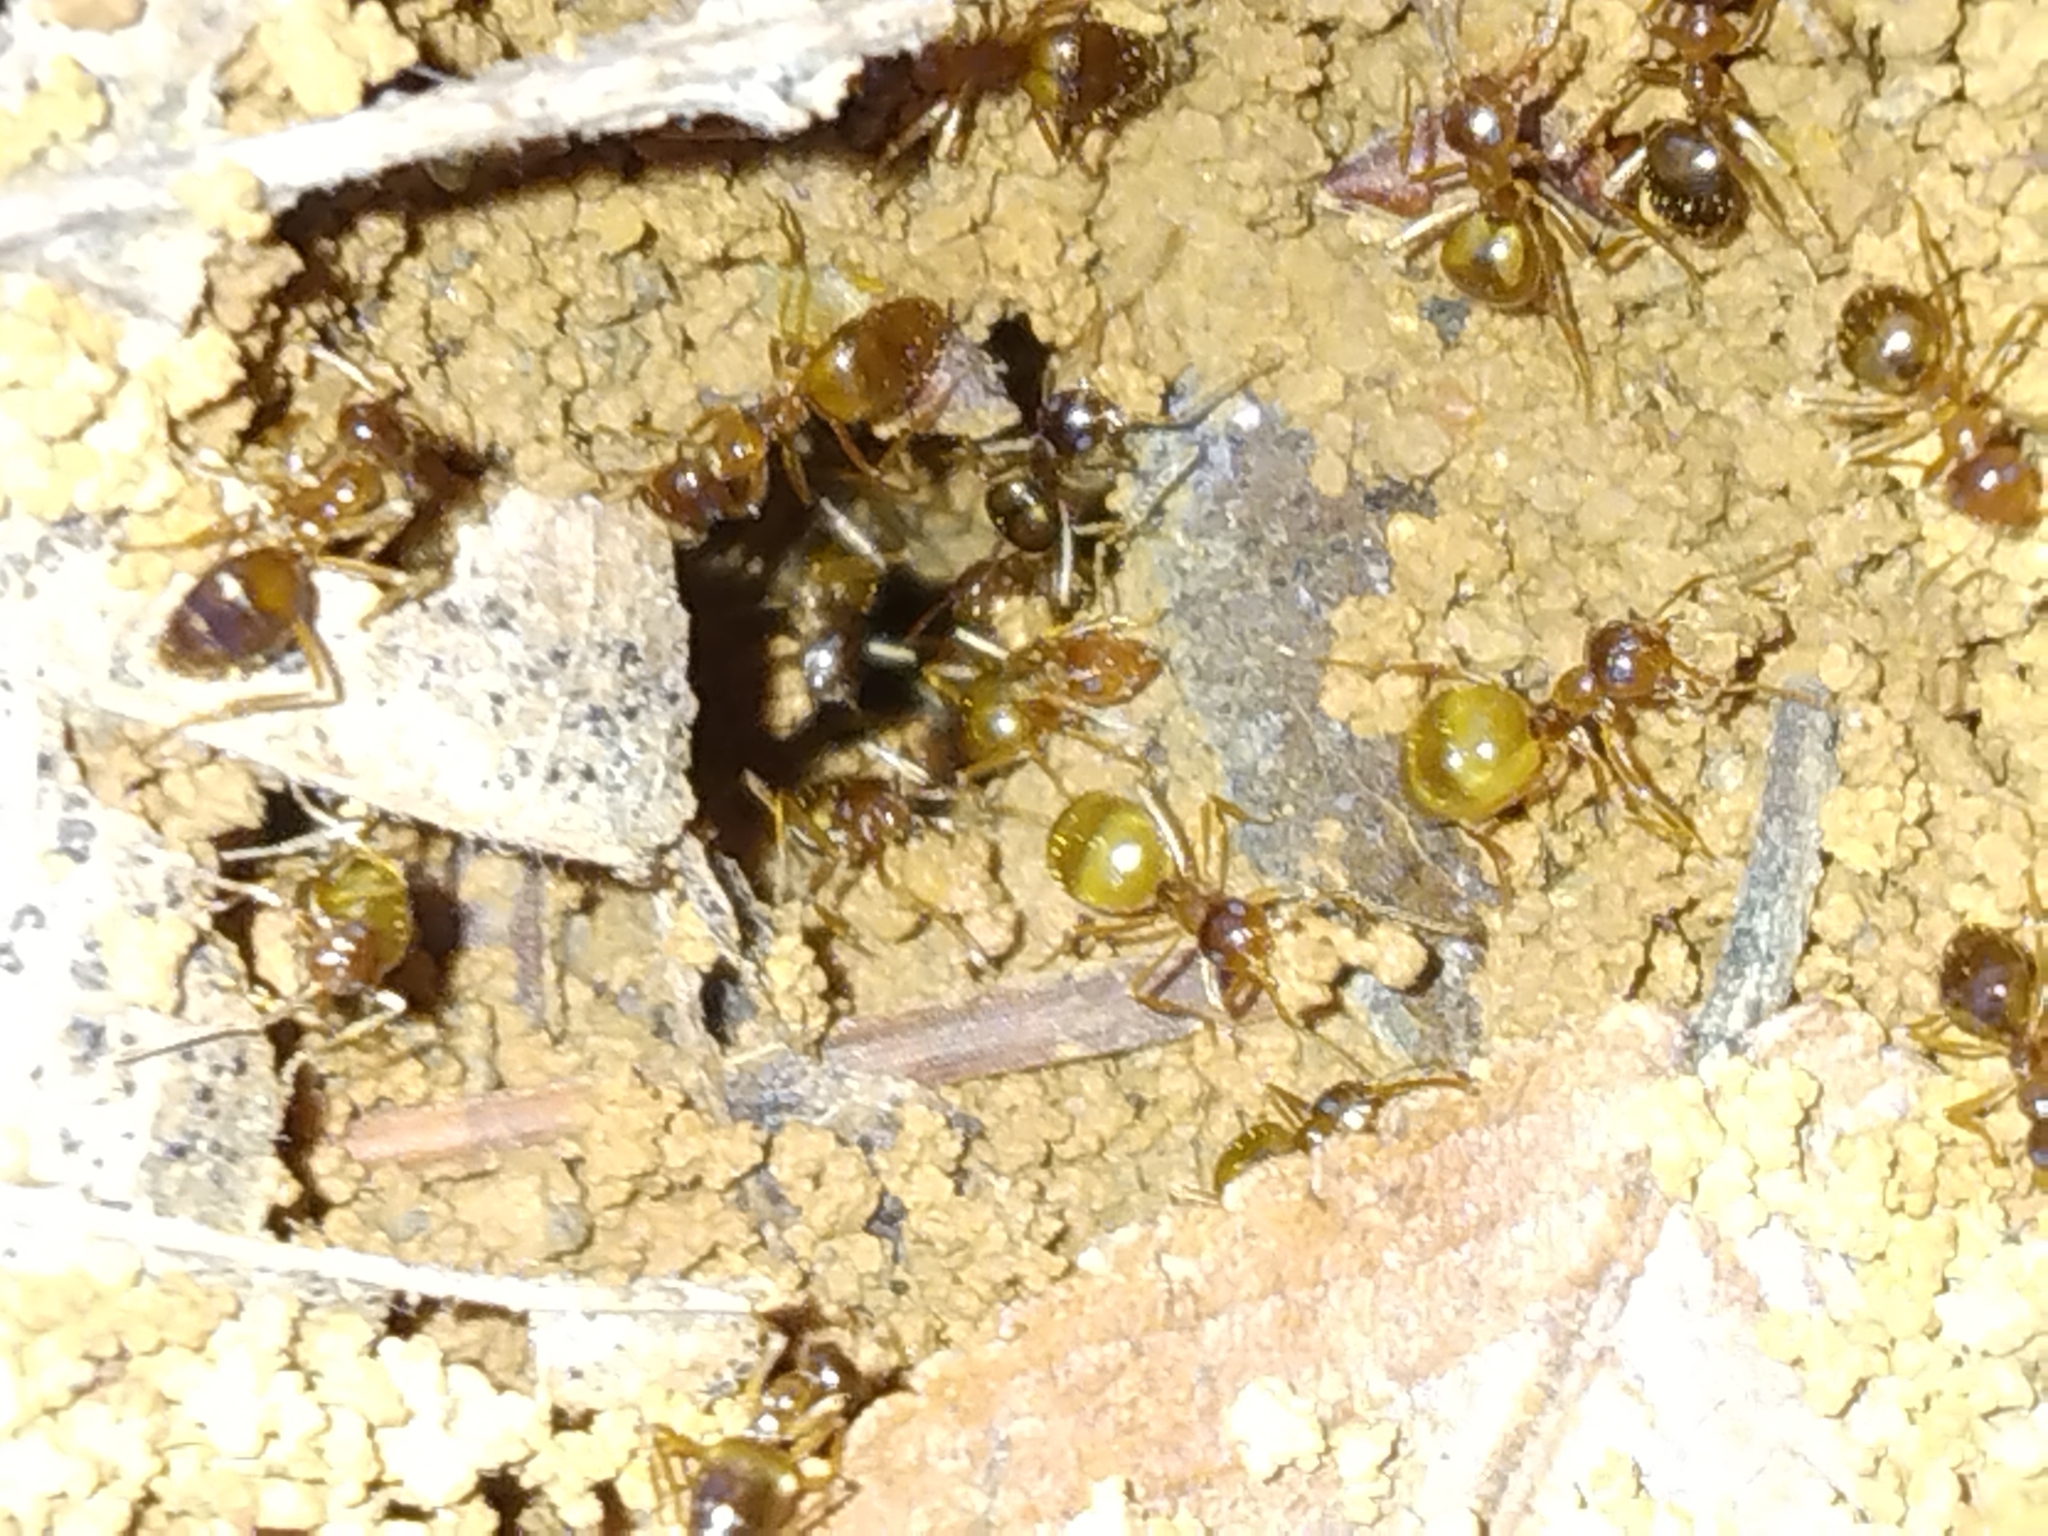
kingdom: Animalia
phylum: Arthropoda
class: Insecta
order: Hymenoptera
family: Formicidae
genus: Prenolepis
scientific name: Prenolepis imparis
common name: Small honey ant
